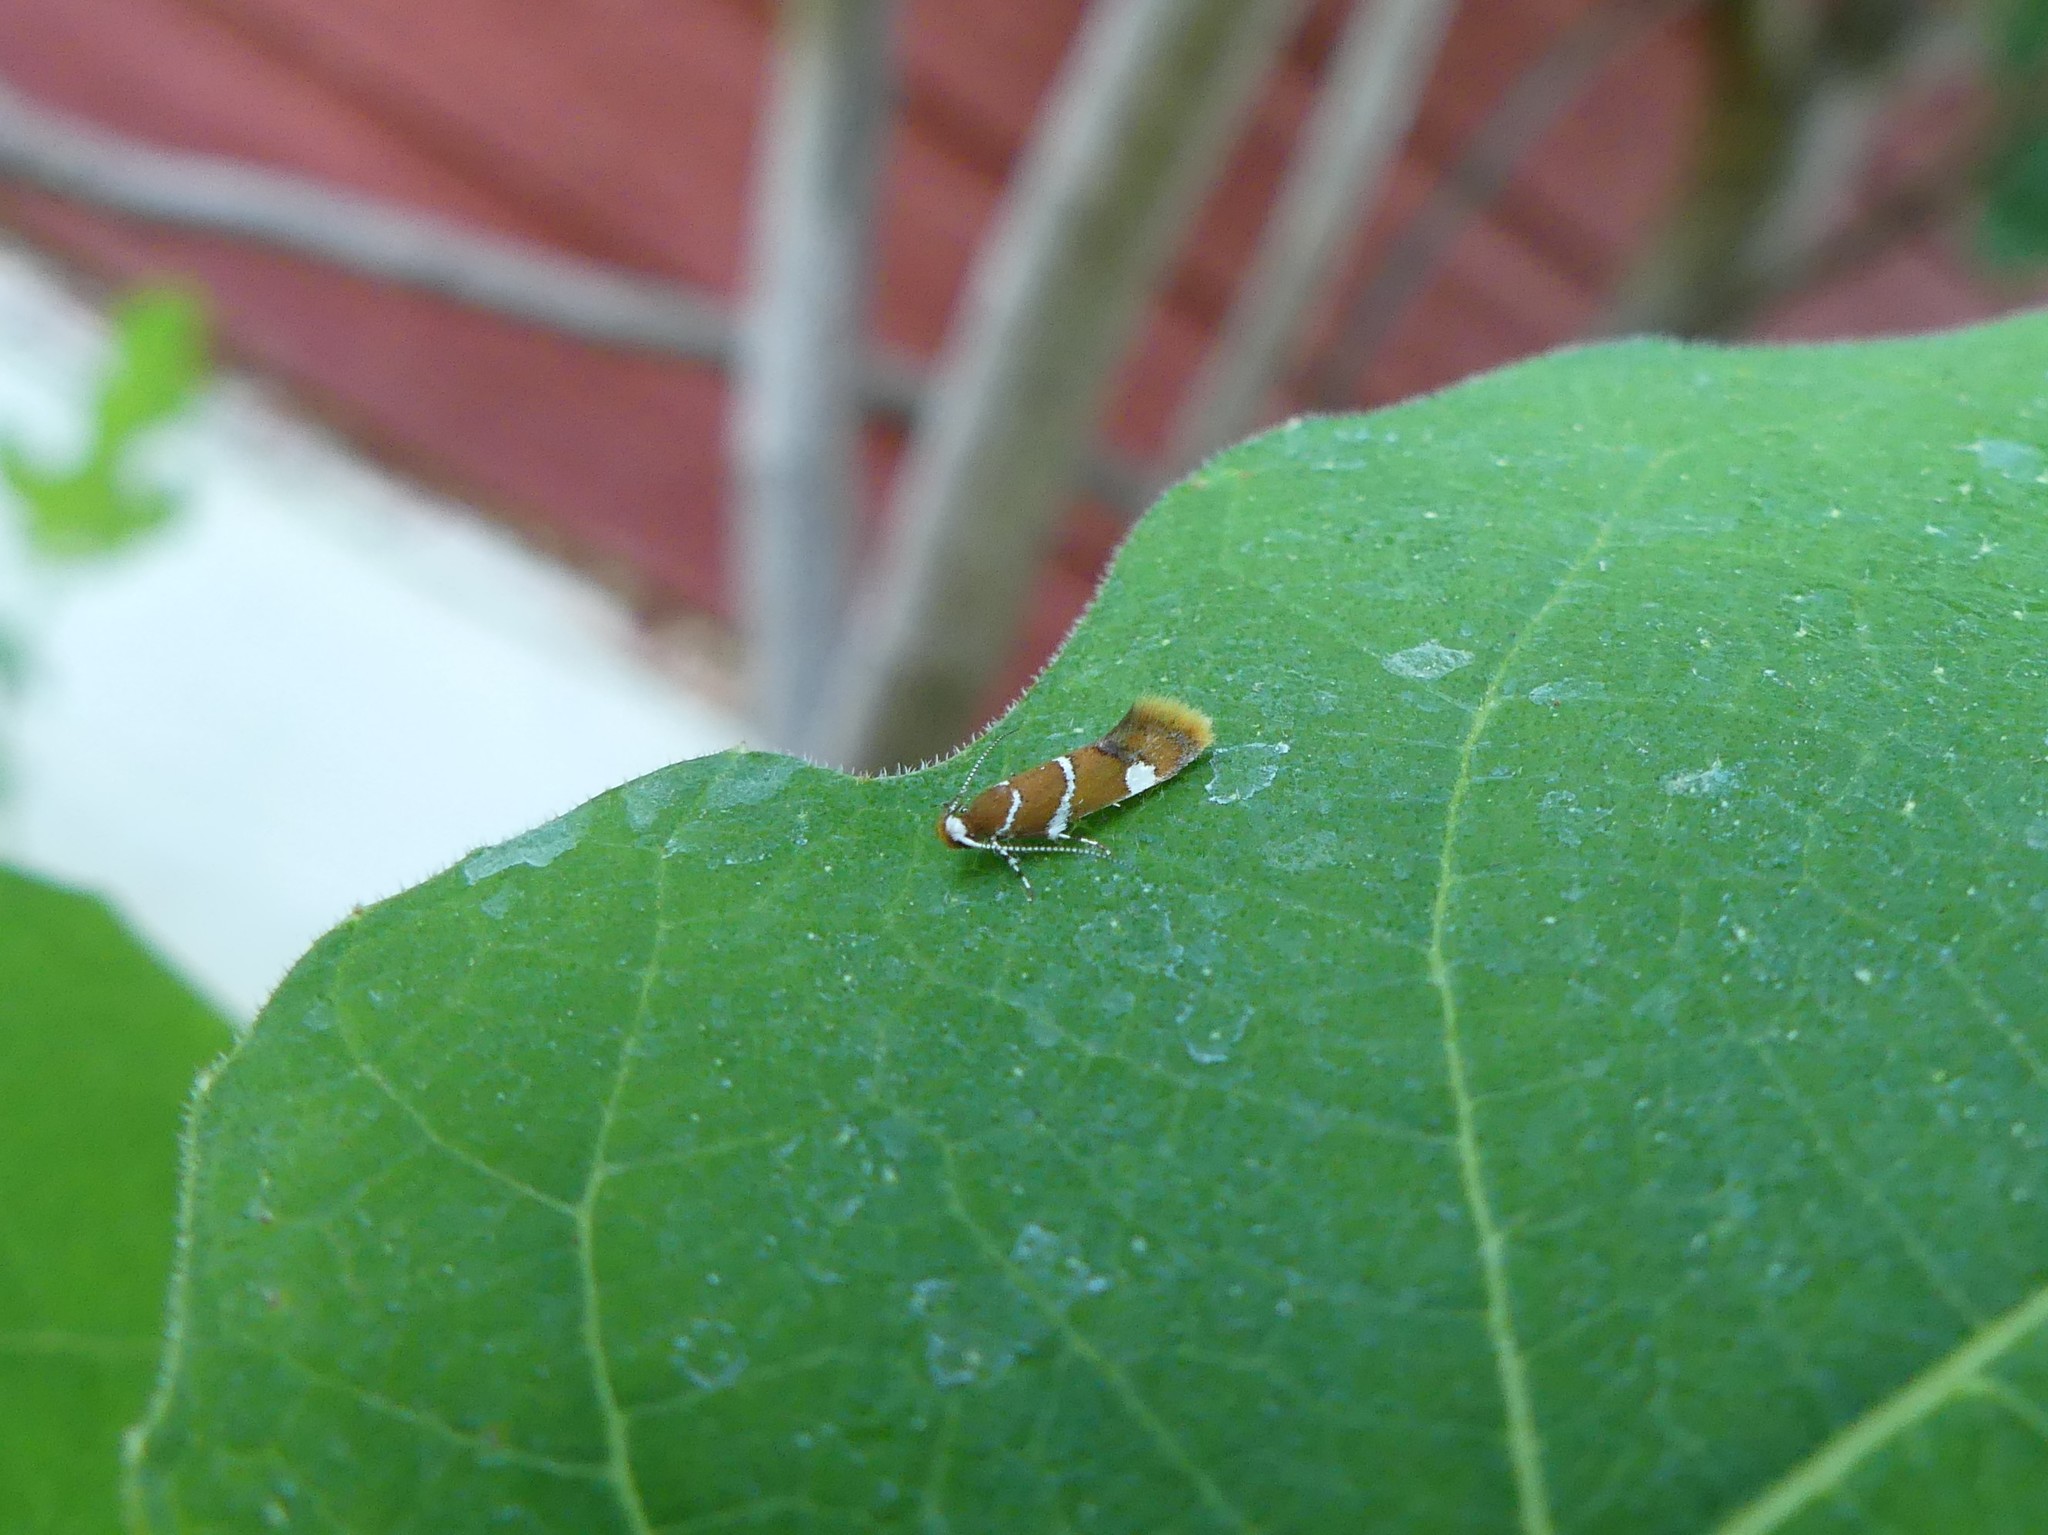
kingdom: Animalia
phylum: Arthropoda
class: Insecta
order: Lepidoptera
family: Oecophoridae
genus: Promalactis
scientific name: Promalactis suzukiella
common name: Moth
